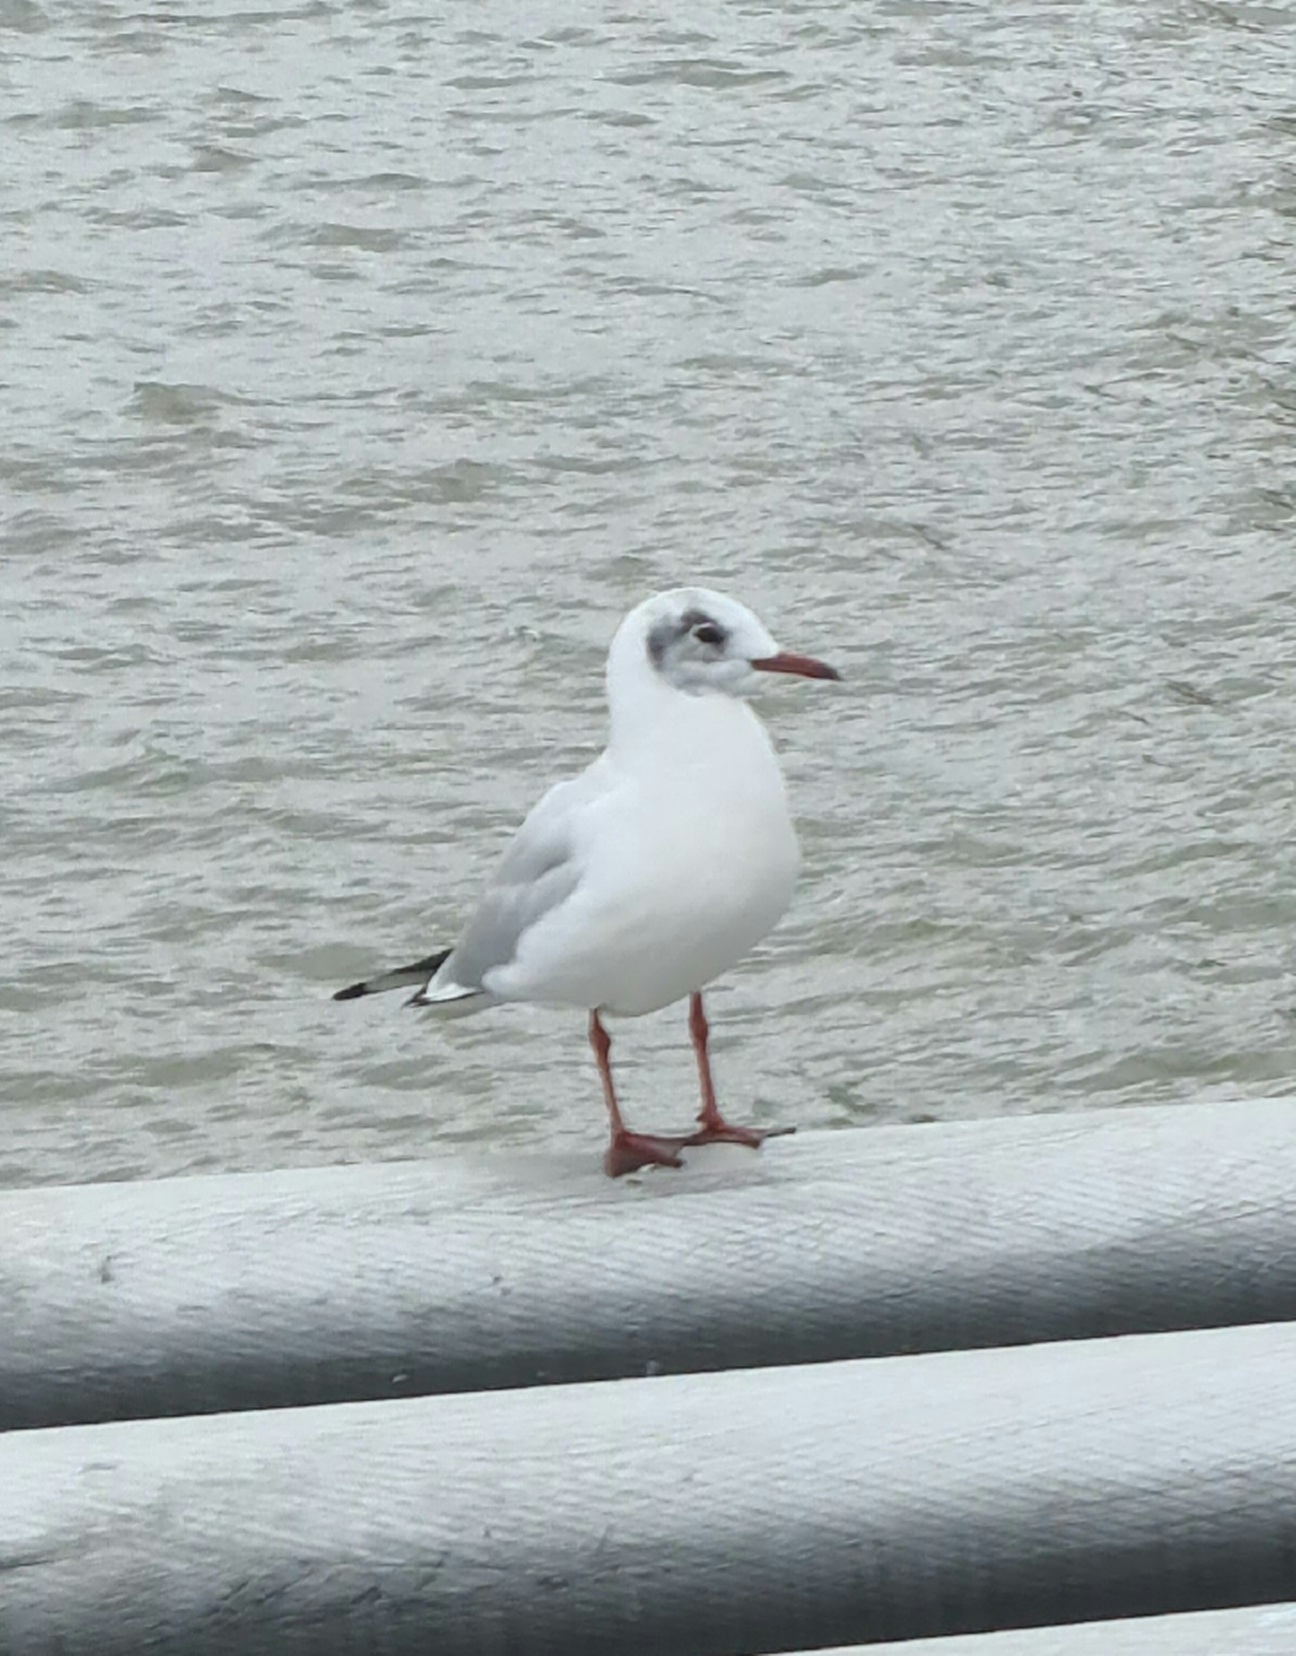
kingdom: Animalia
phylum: Chordata
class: Aves
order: Charadriiformes
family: Laridae
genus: Chroicocephalus
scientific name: Chroicocephalus ridibundus
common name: Black-headed gull
